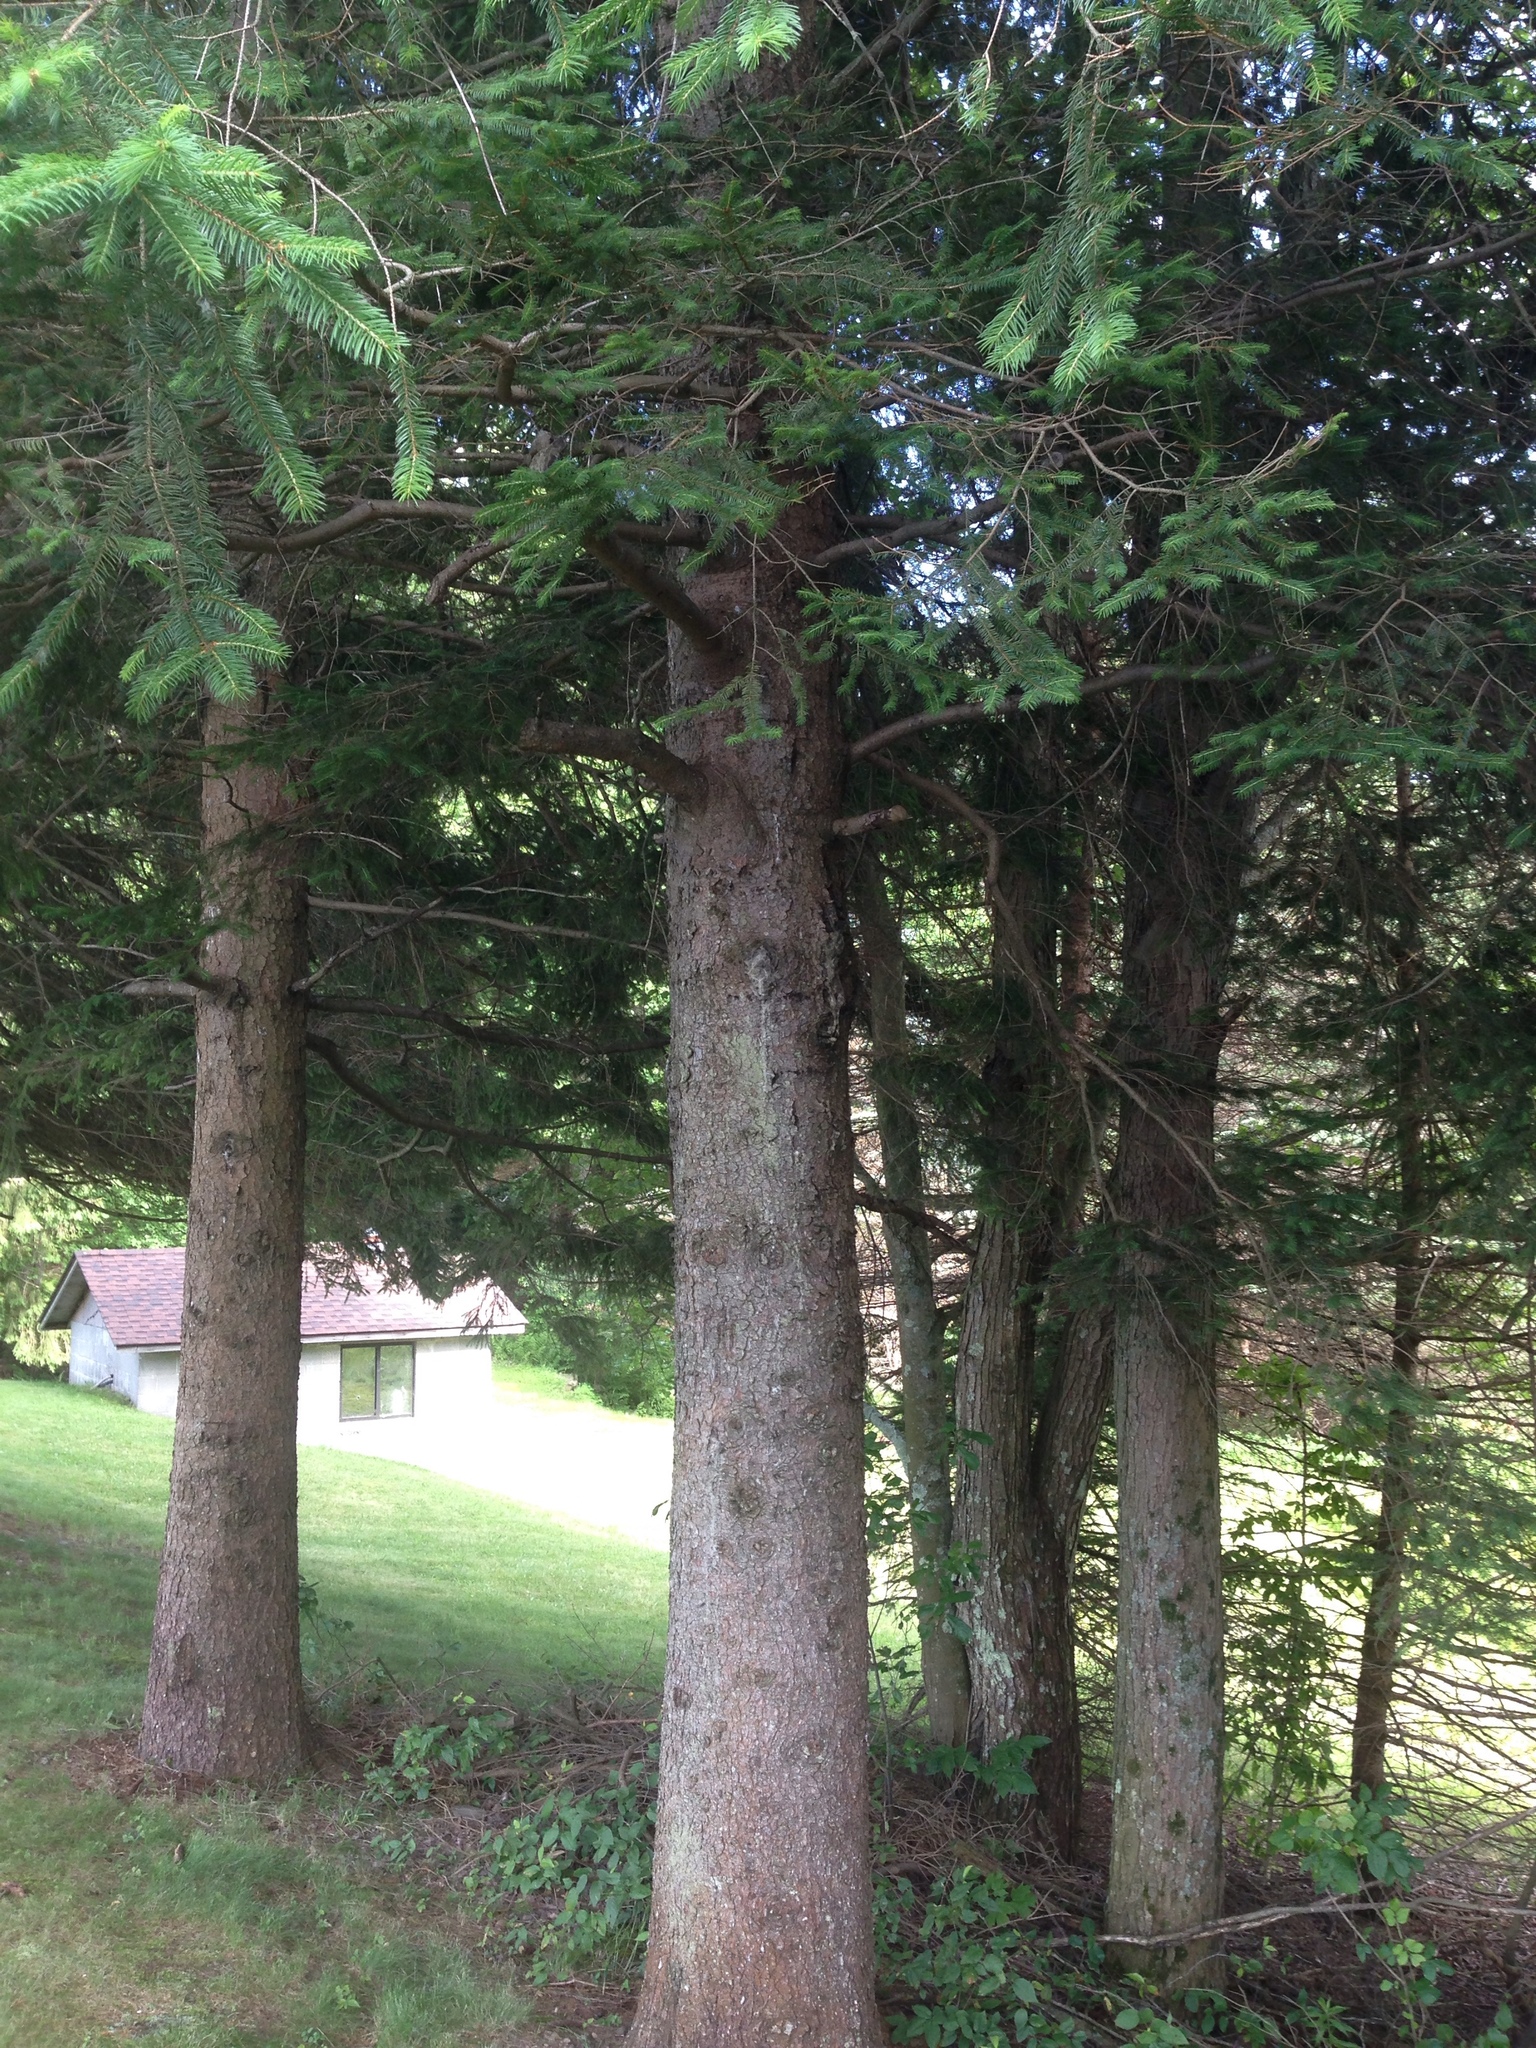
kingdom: Plantae
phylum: Tracheophyta
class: Pinopsida
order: Pinales
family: Pinaceae
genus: Picea
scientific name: Picea abies
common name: Norway spruce
